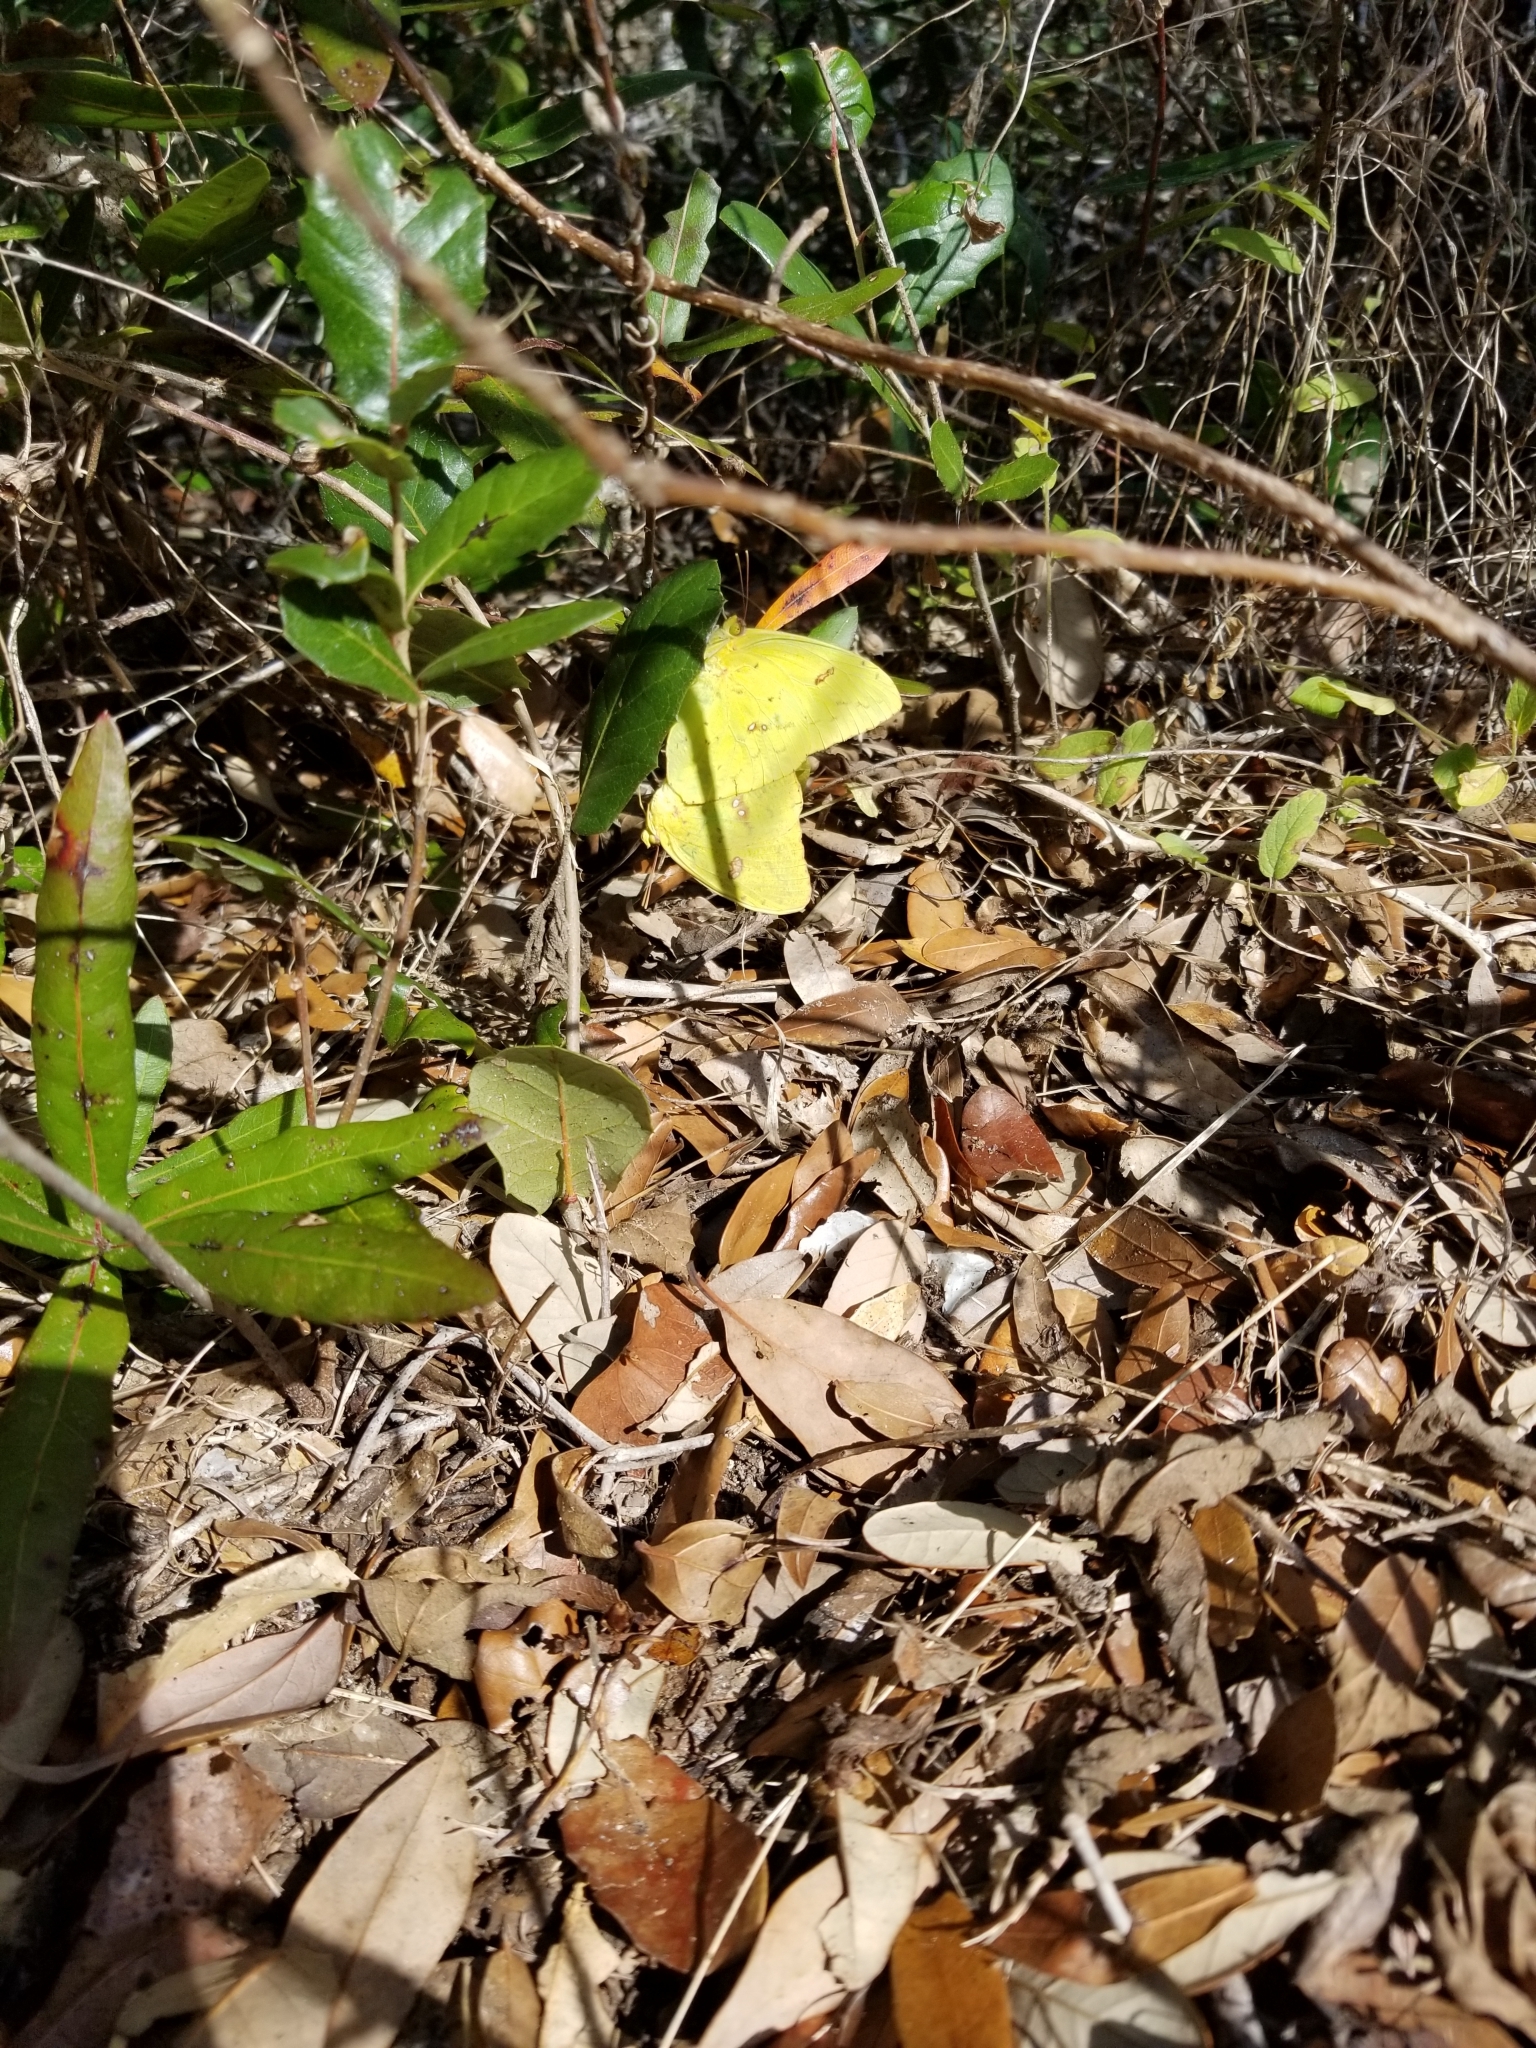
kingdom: Animalia
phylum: Arthropoda
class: Insecta
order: Lepidoptera
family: Pieridae
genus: Phoebis
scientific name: Phoebis sennae
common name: Cloudless sulphur
